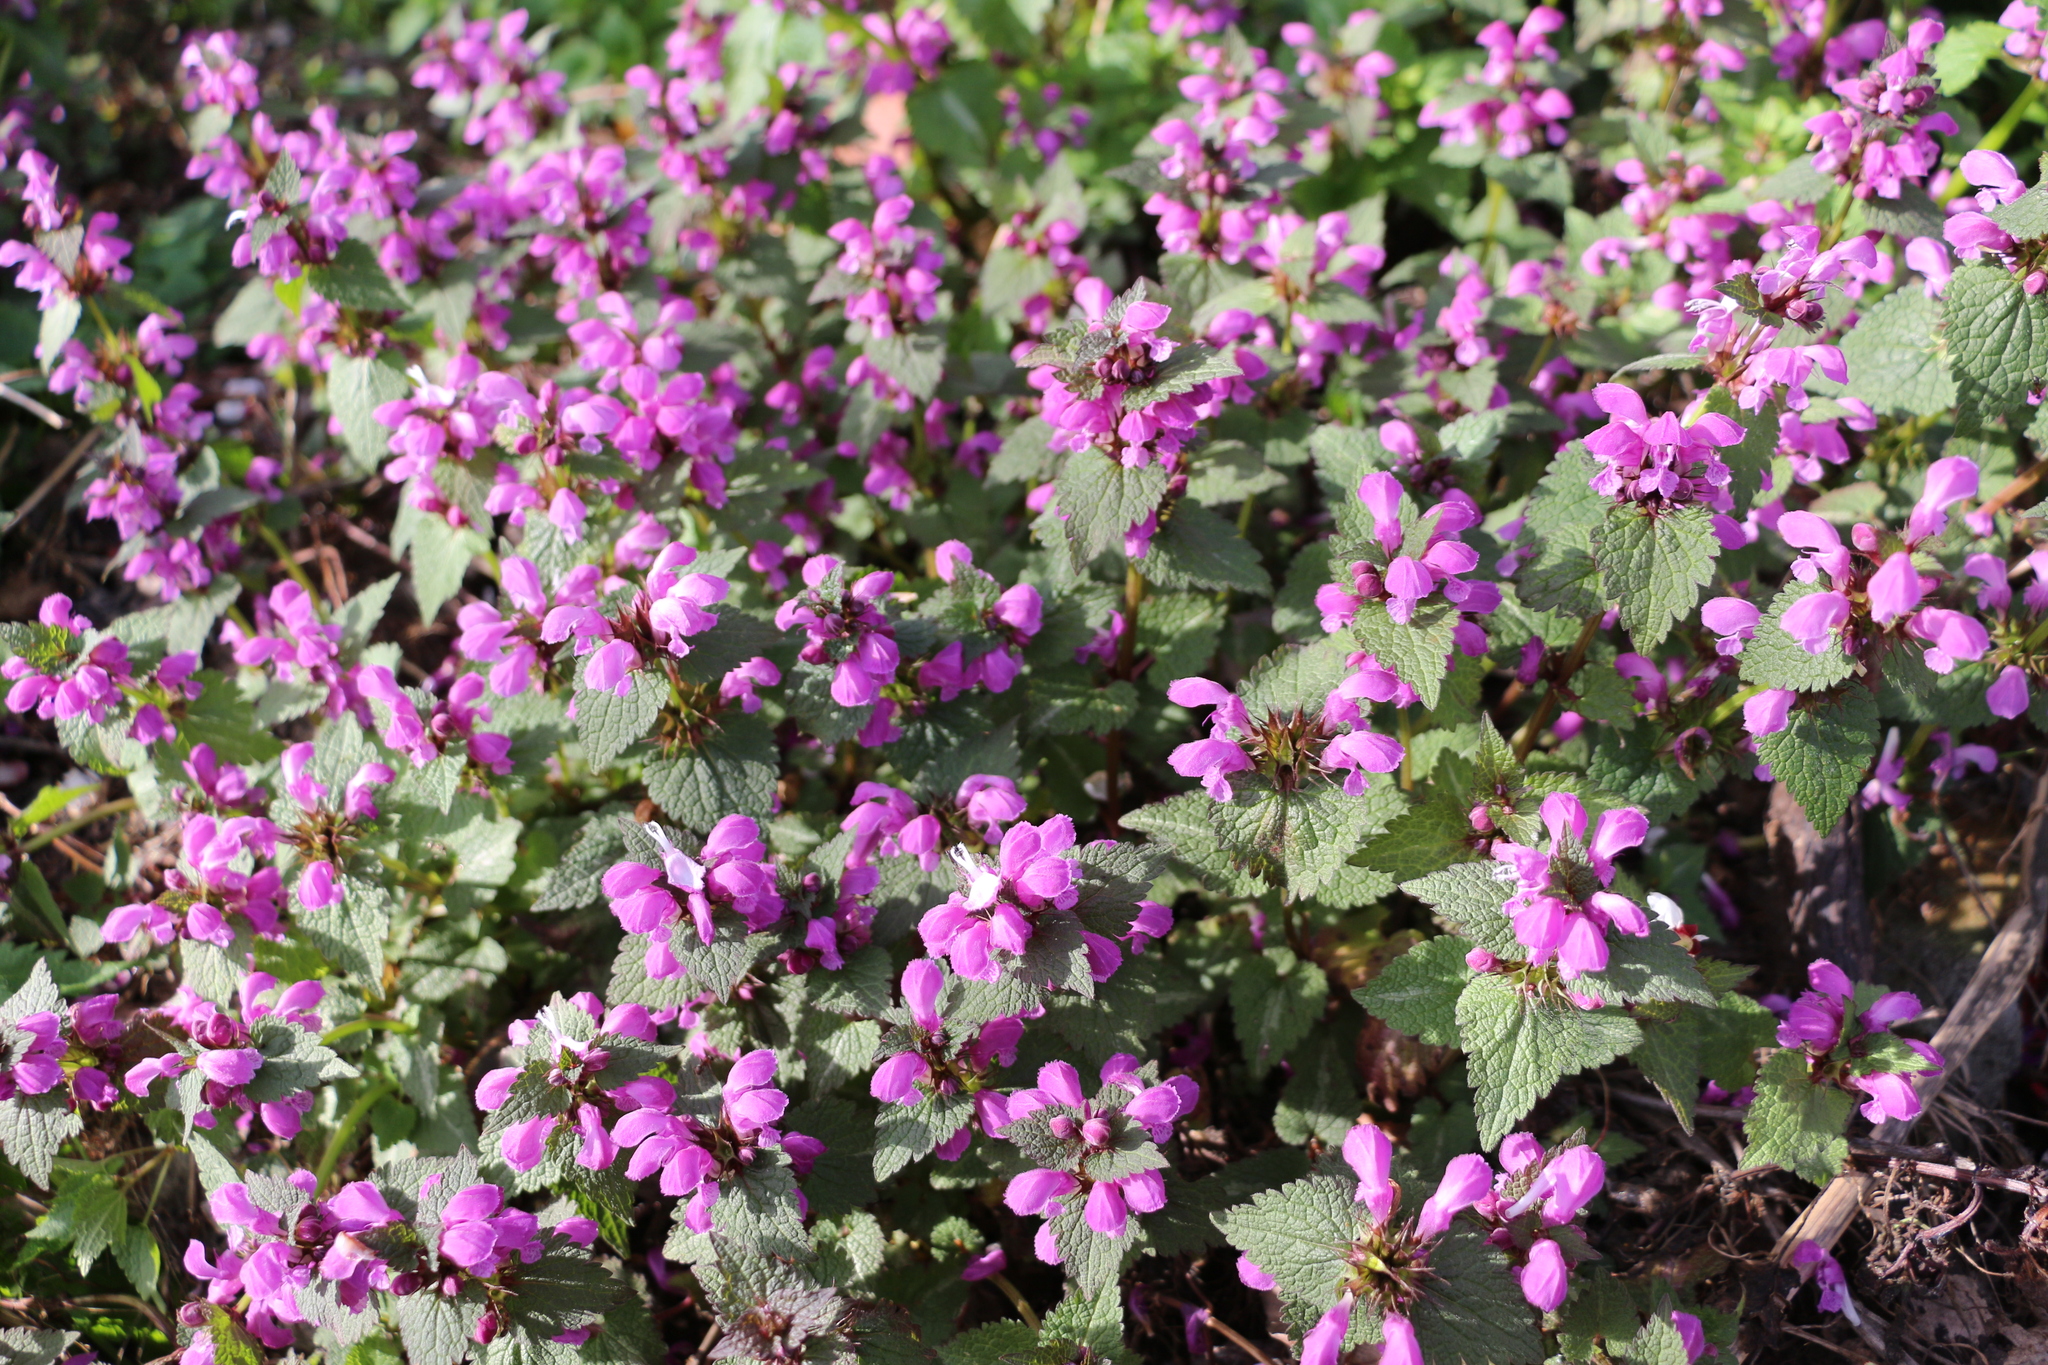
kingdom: Plantae
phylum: Tracheophyta
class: Magnoliopsida
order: Lamiales
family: Lamiaceae
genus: Lamium
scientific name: Lamium maculatum
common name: Spotted dead-nettle
